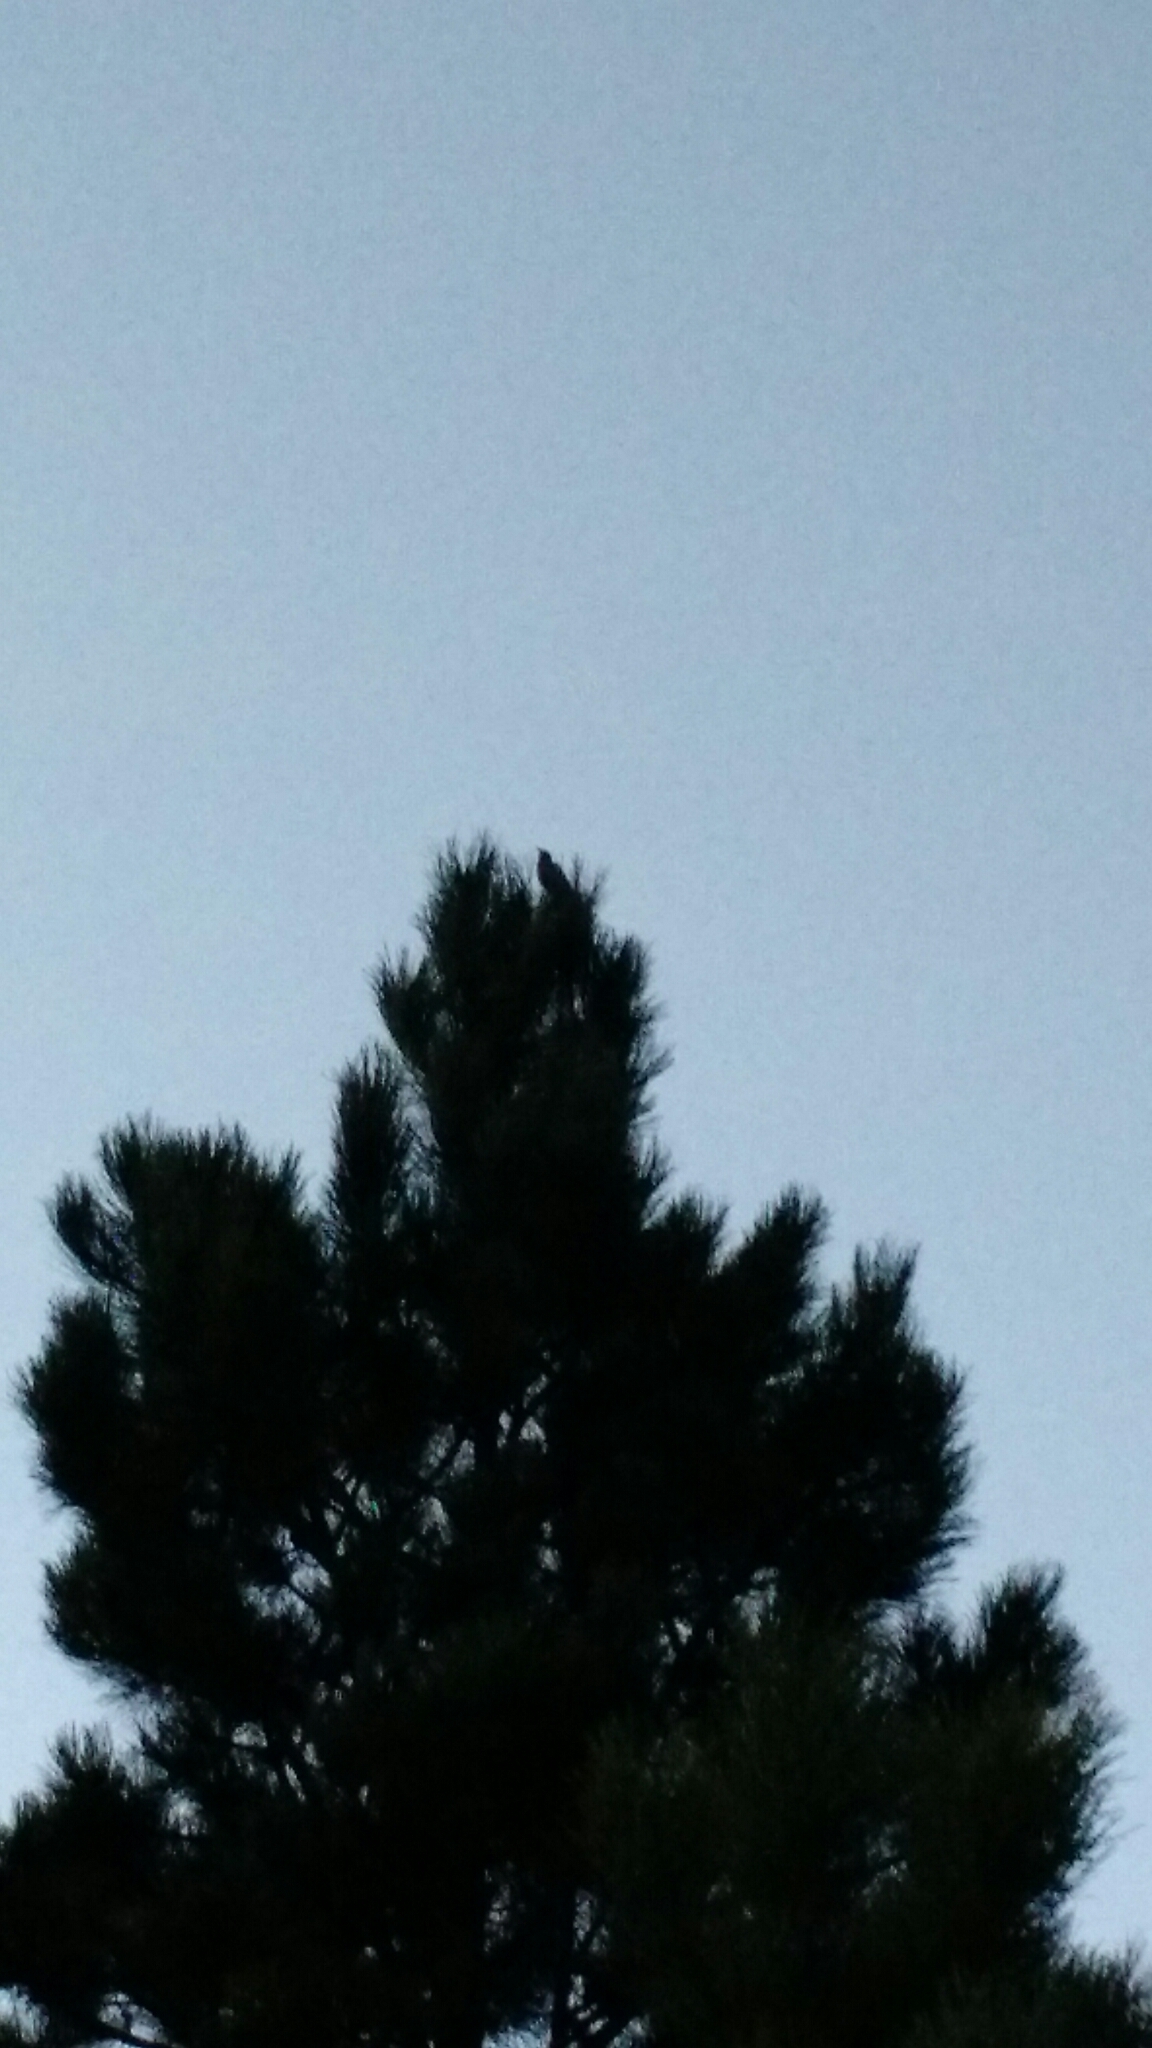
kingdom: Animalia
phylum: Chordata
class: Aves
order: Passeriformes
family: Turdidae
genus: Turdus
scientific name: Turdus migratorius
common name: American robin
